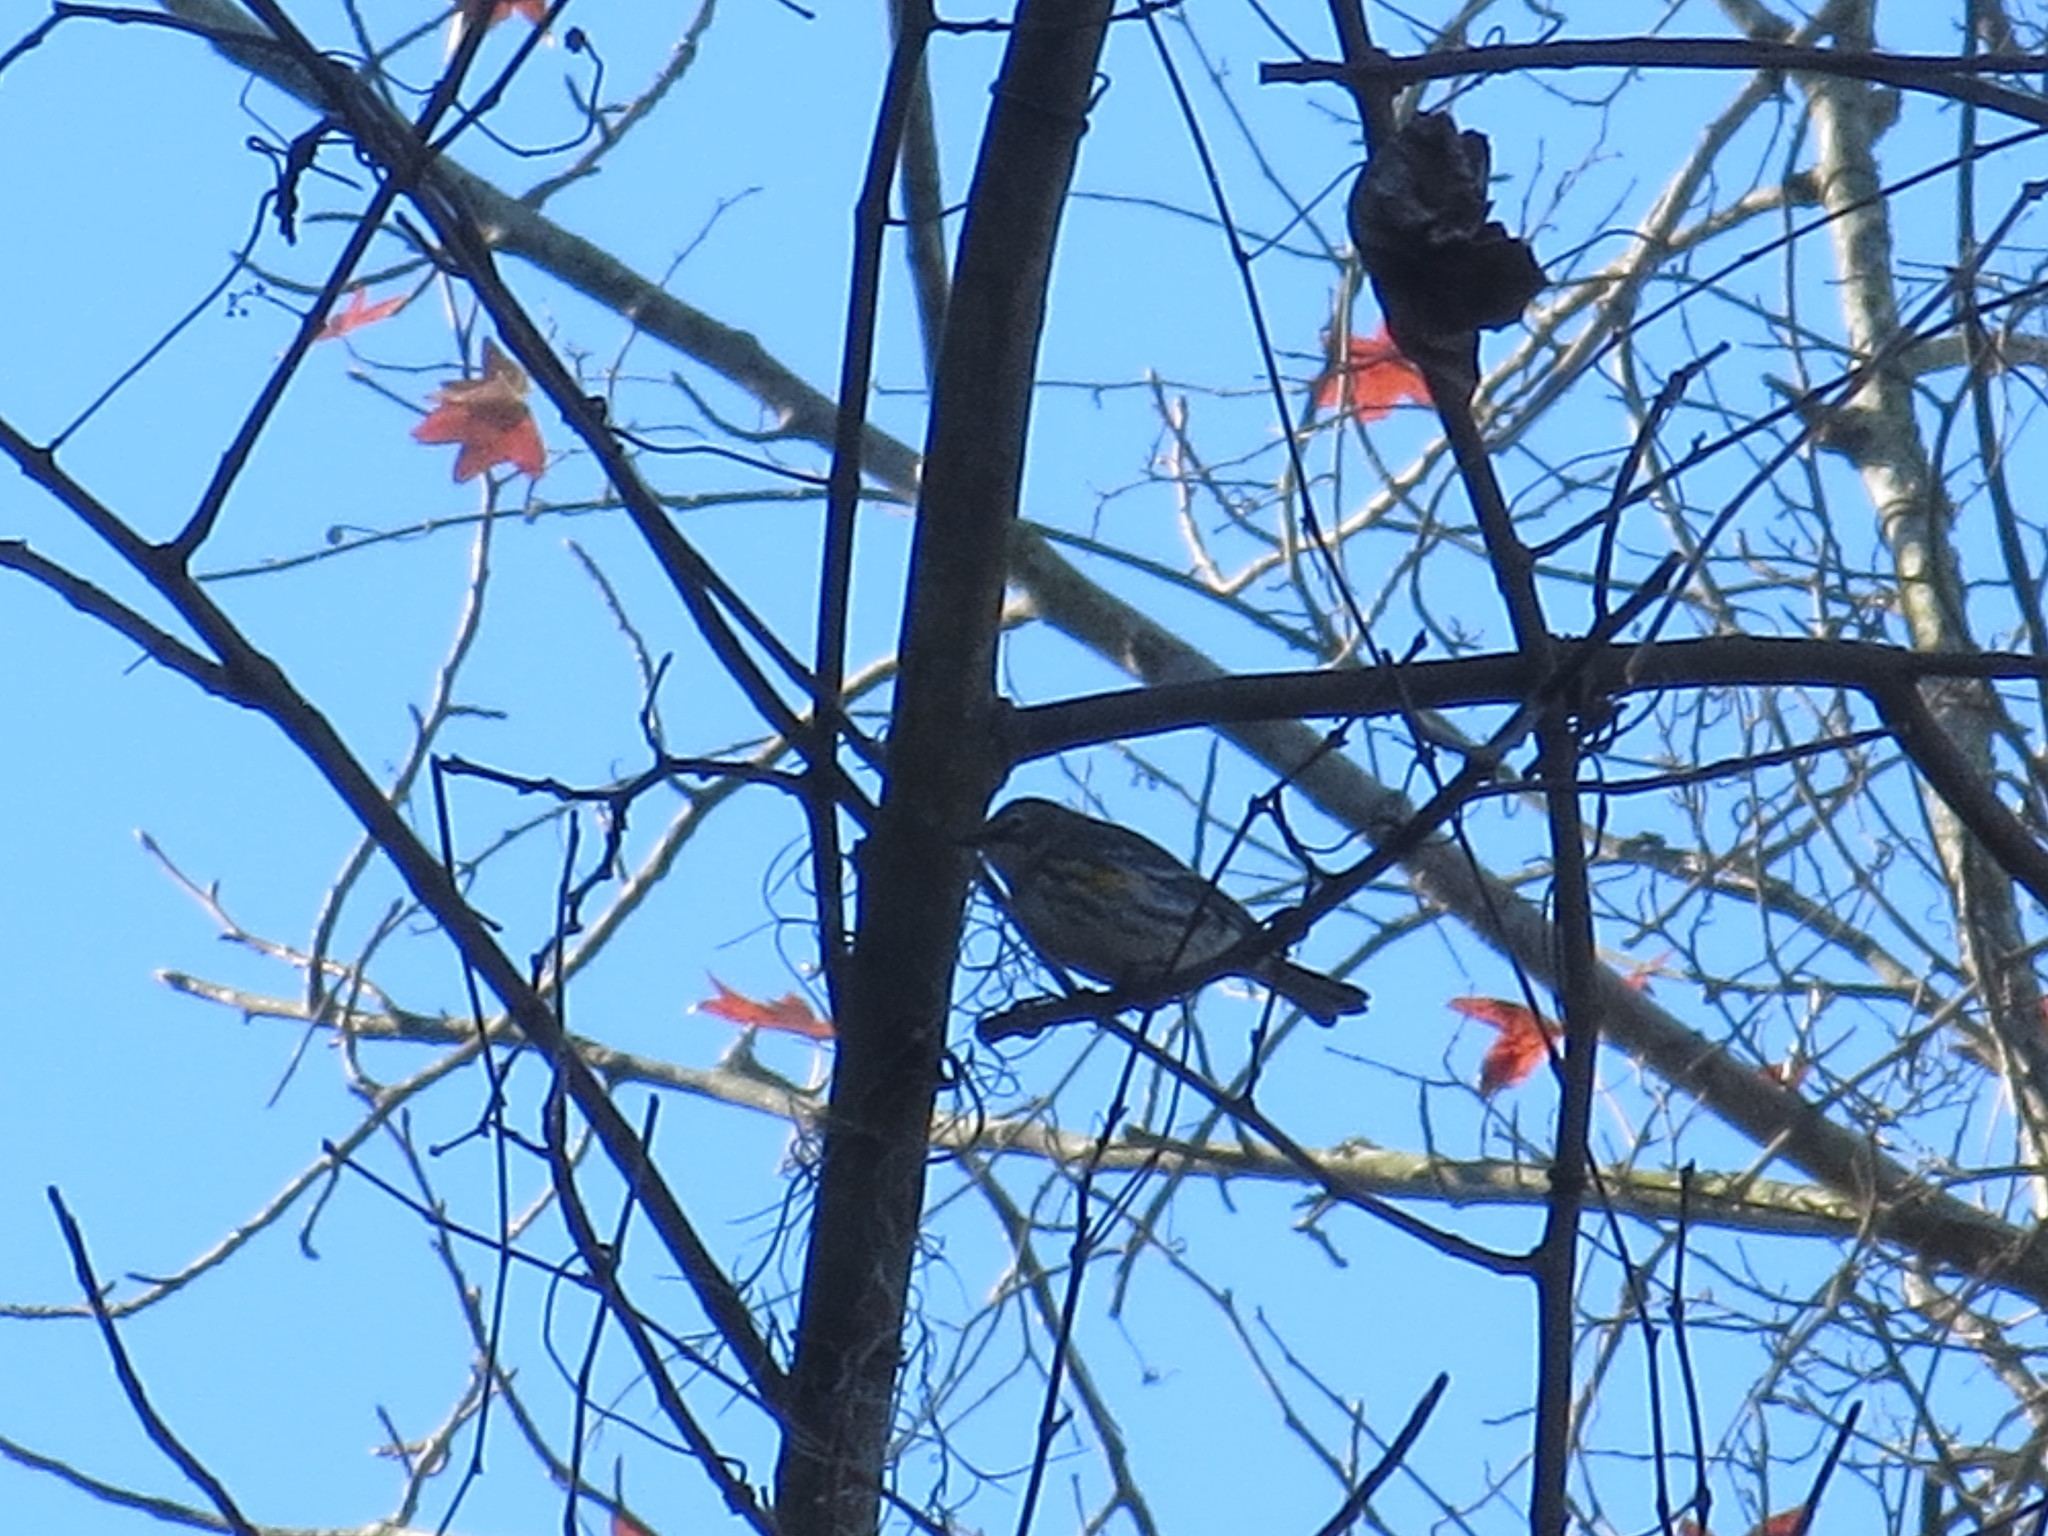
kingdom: Animalia
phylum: Chordata
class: Aves
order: Passeriformes
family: Parulidae
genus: Setophaga
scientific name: Setophaga coronata
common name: Myrtle warbler
